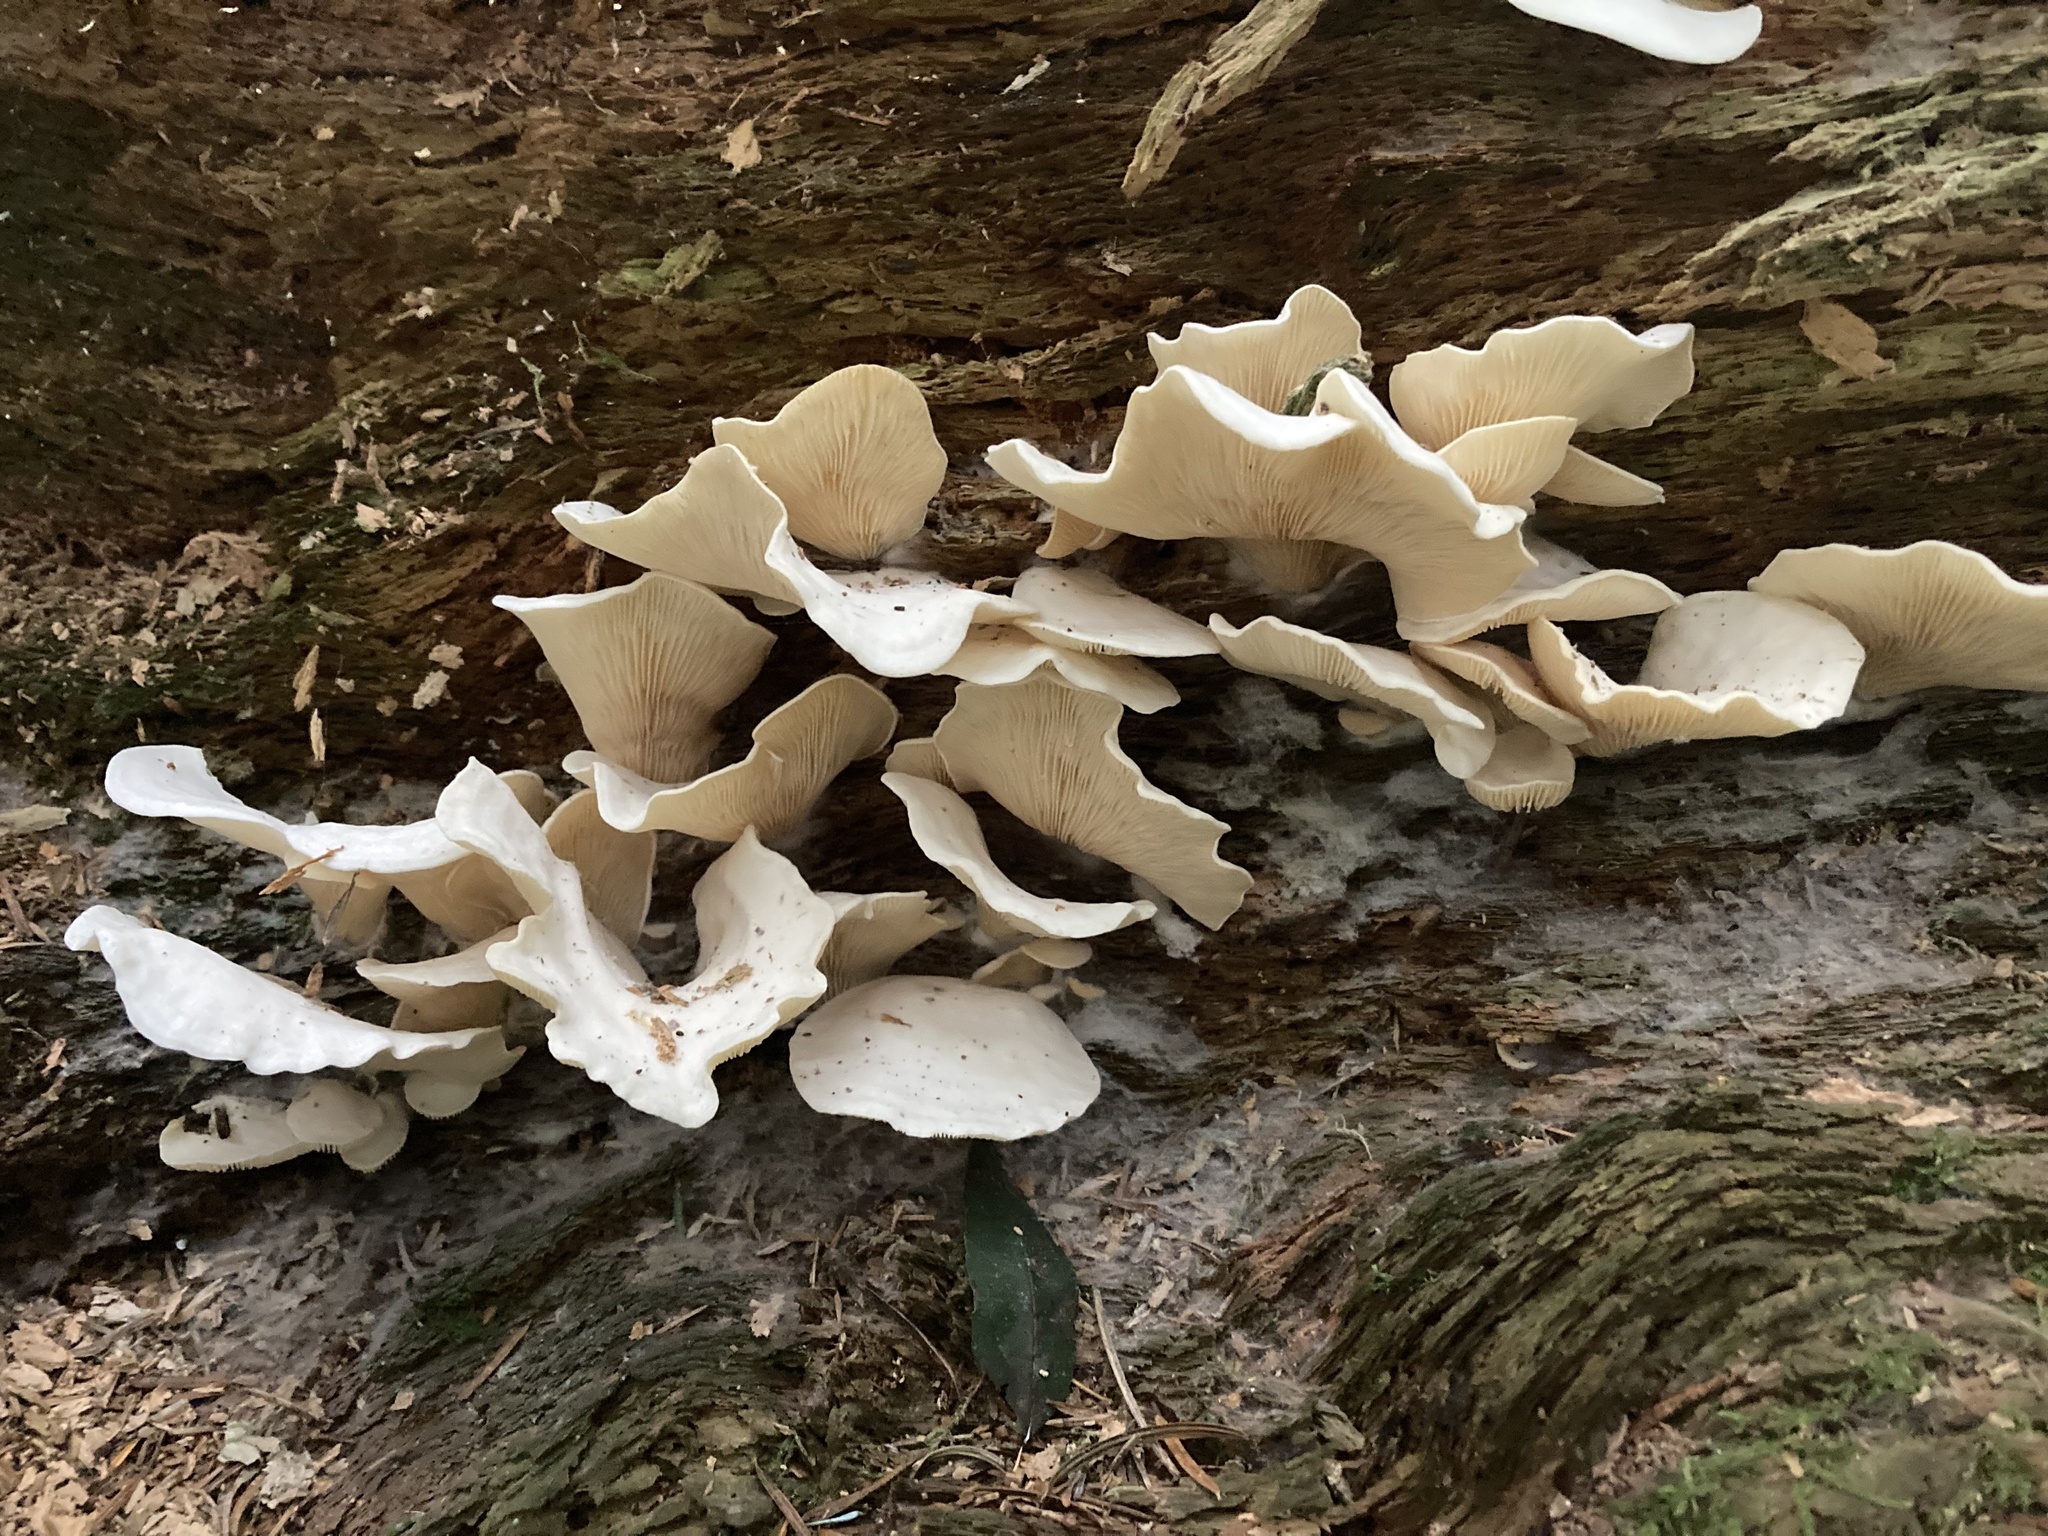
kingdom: Fungi
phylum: Basidiomycota
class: Agaricomycetes
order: Agaricales
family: Marasmiaceae
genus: Pleurocybella
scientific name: Pleurocybella porrigens
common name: Angel's wings
